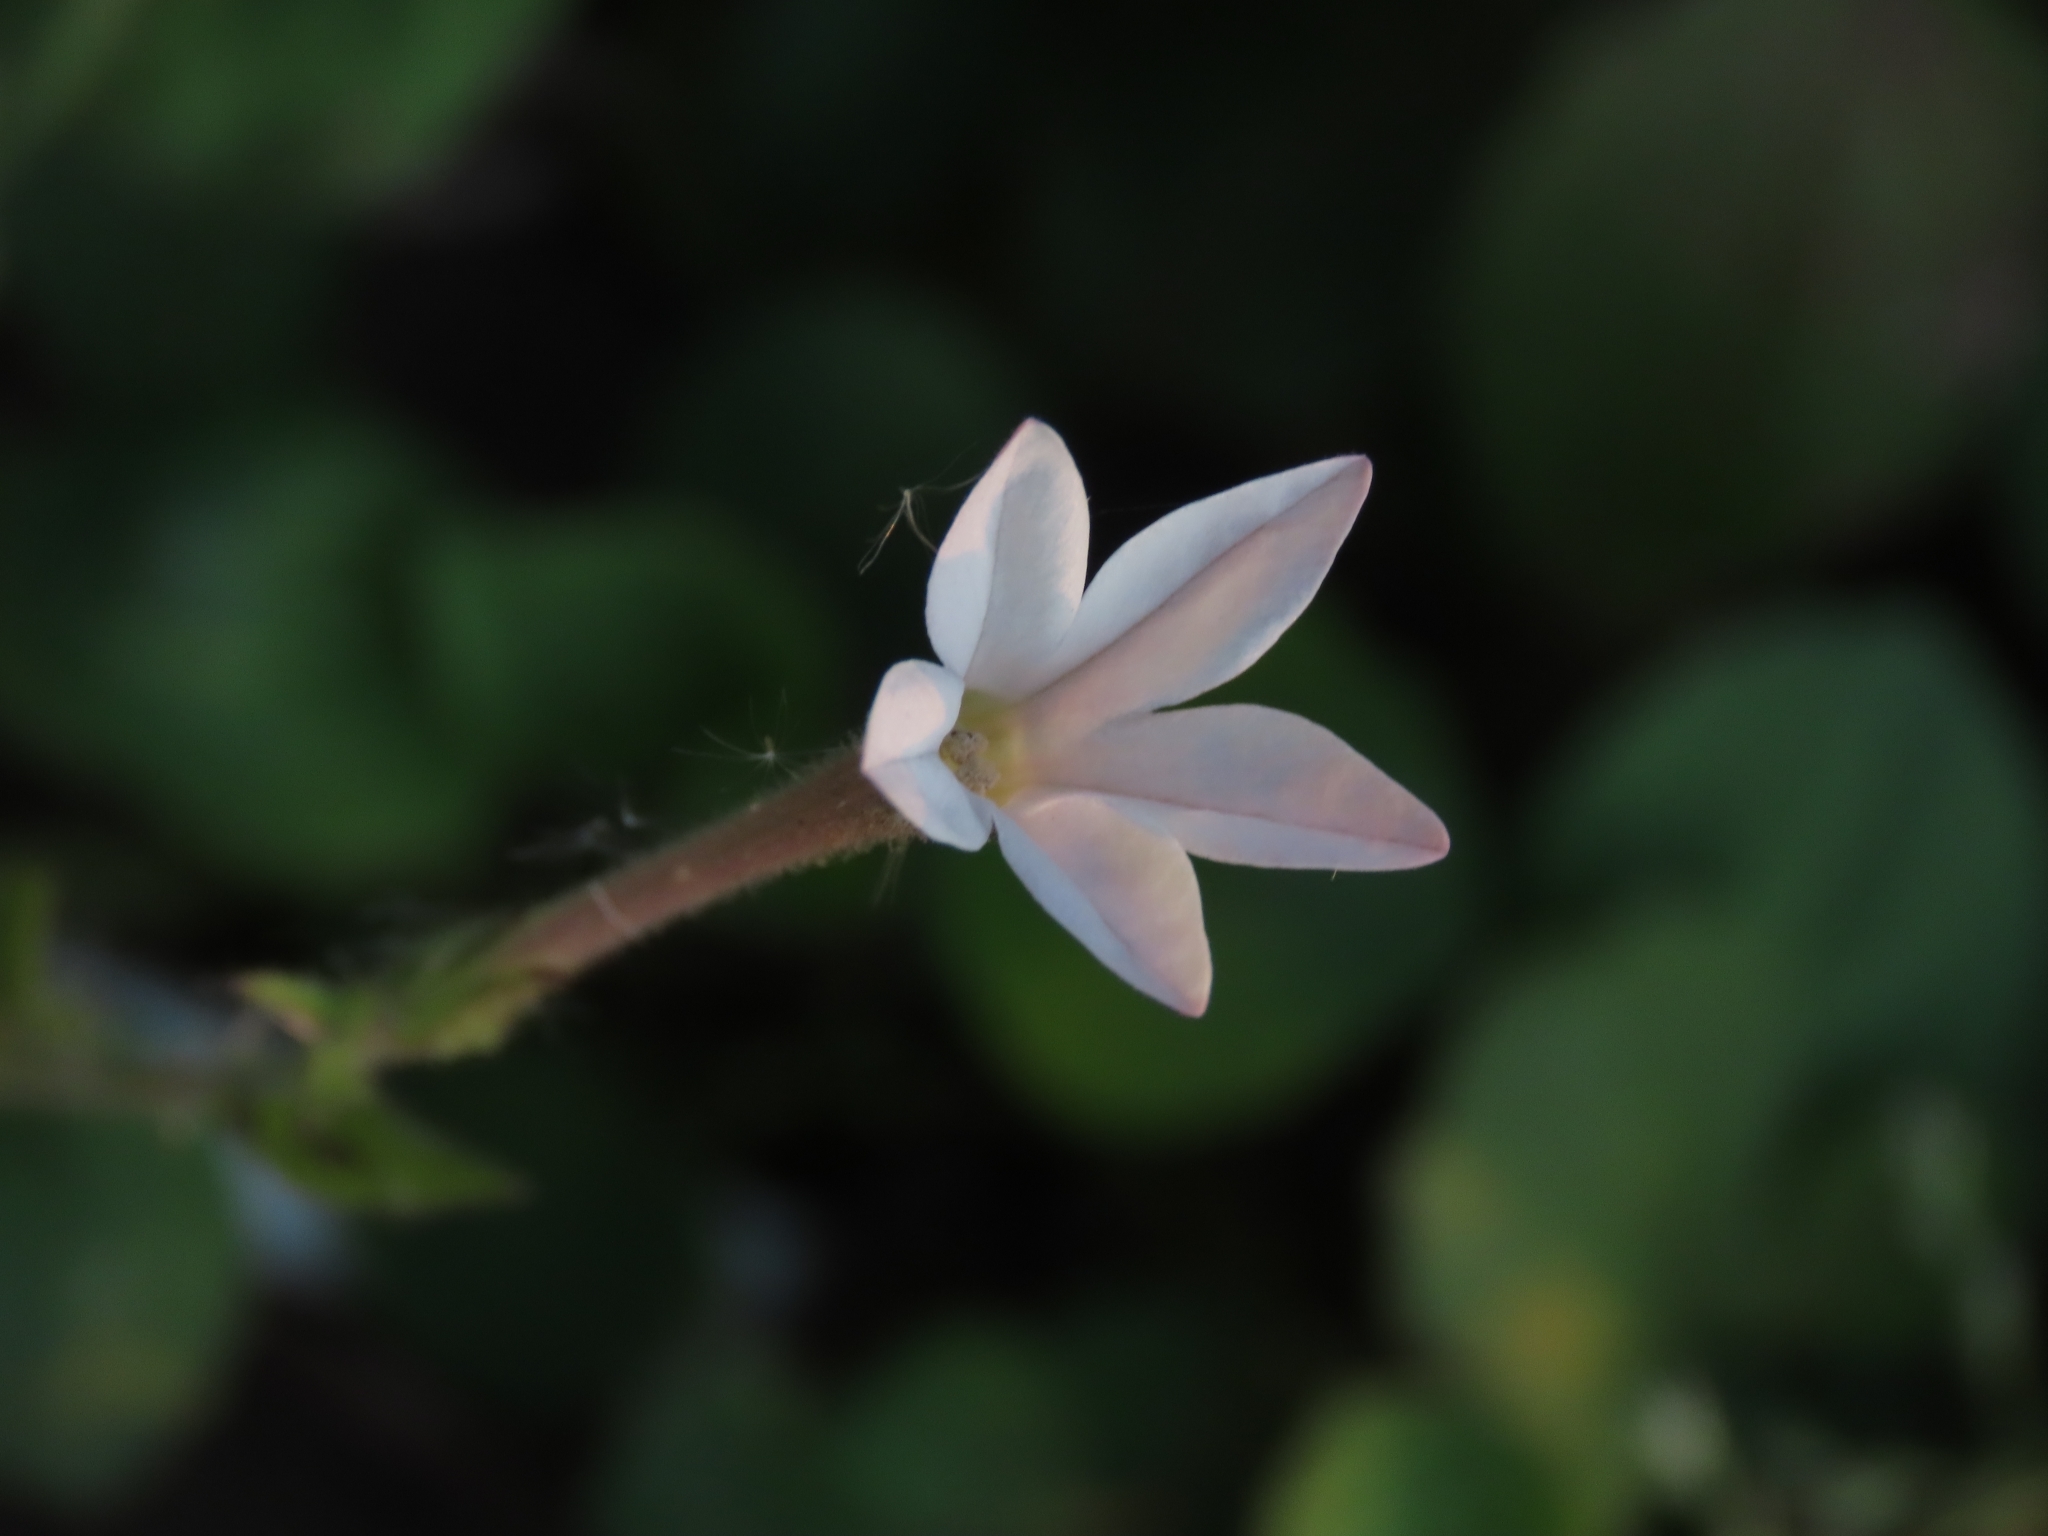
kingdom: Plantae
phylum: Tracheophyta
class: Magnoliopsida
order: Solanales
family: Solanaceae
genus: Nicotiana
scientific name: Nicotiana plumbaginifolia
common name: Tex-mex tobacco
